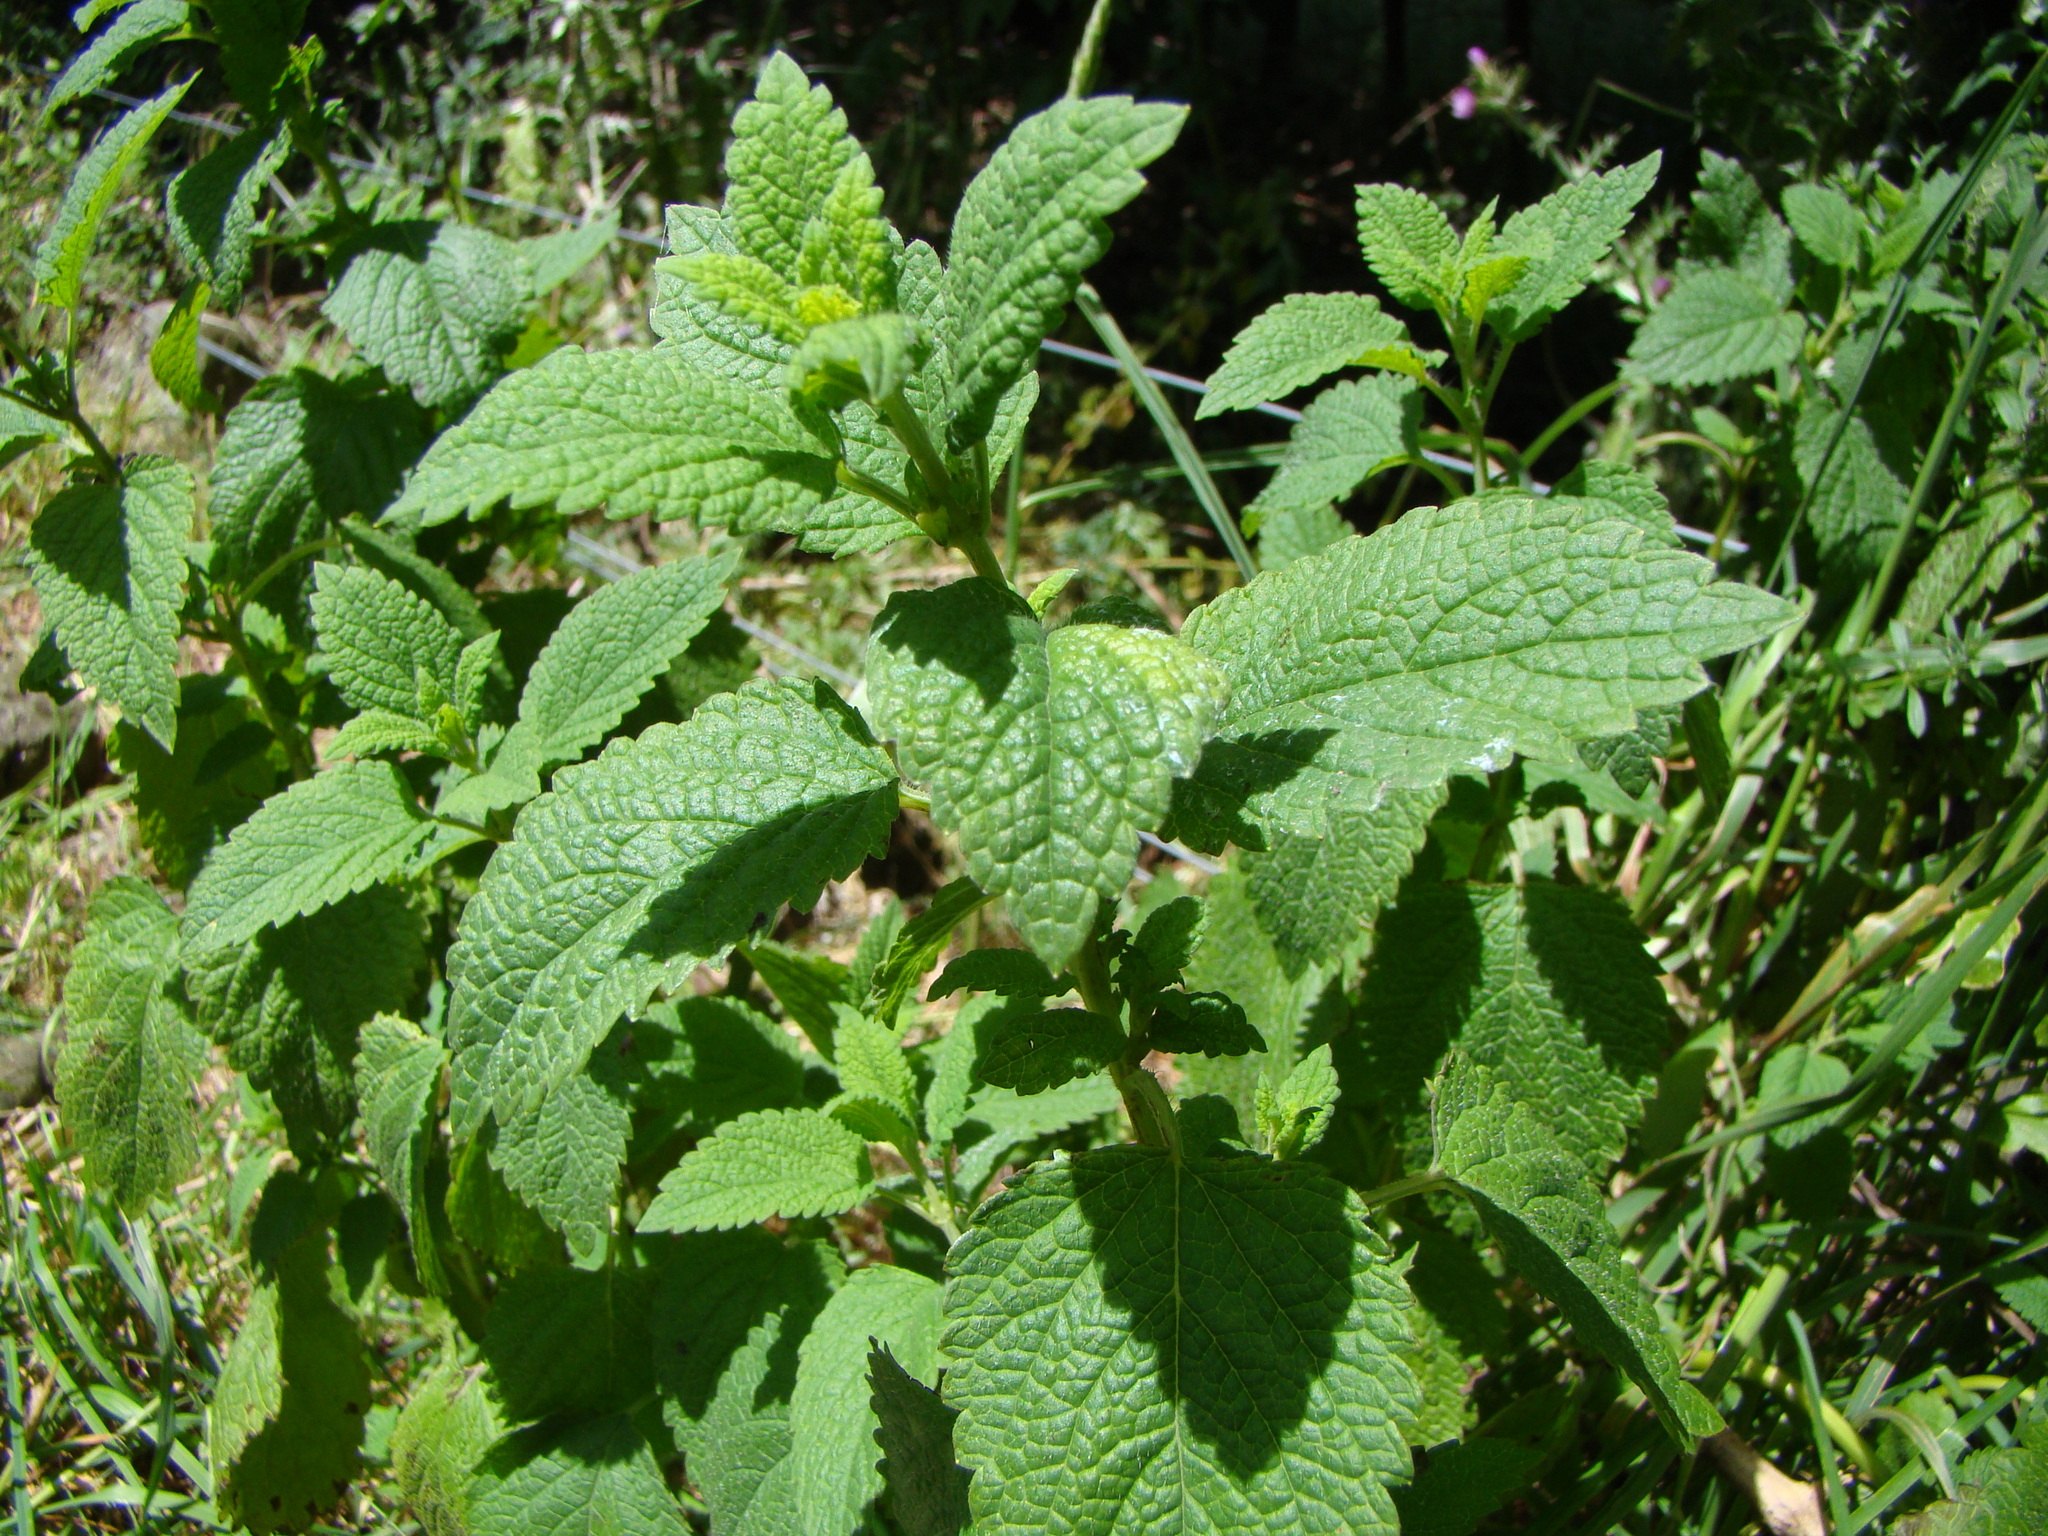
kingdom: Plantae
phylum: Tracheophyta
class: Magnoliopsida
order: Lamiales
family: Lamiaceae
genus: Melissa
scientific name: Melissa officinalis
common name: Balm
